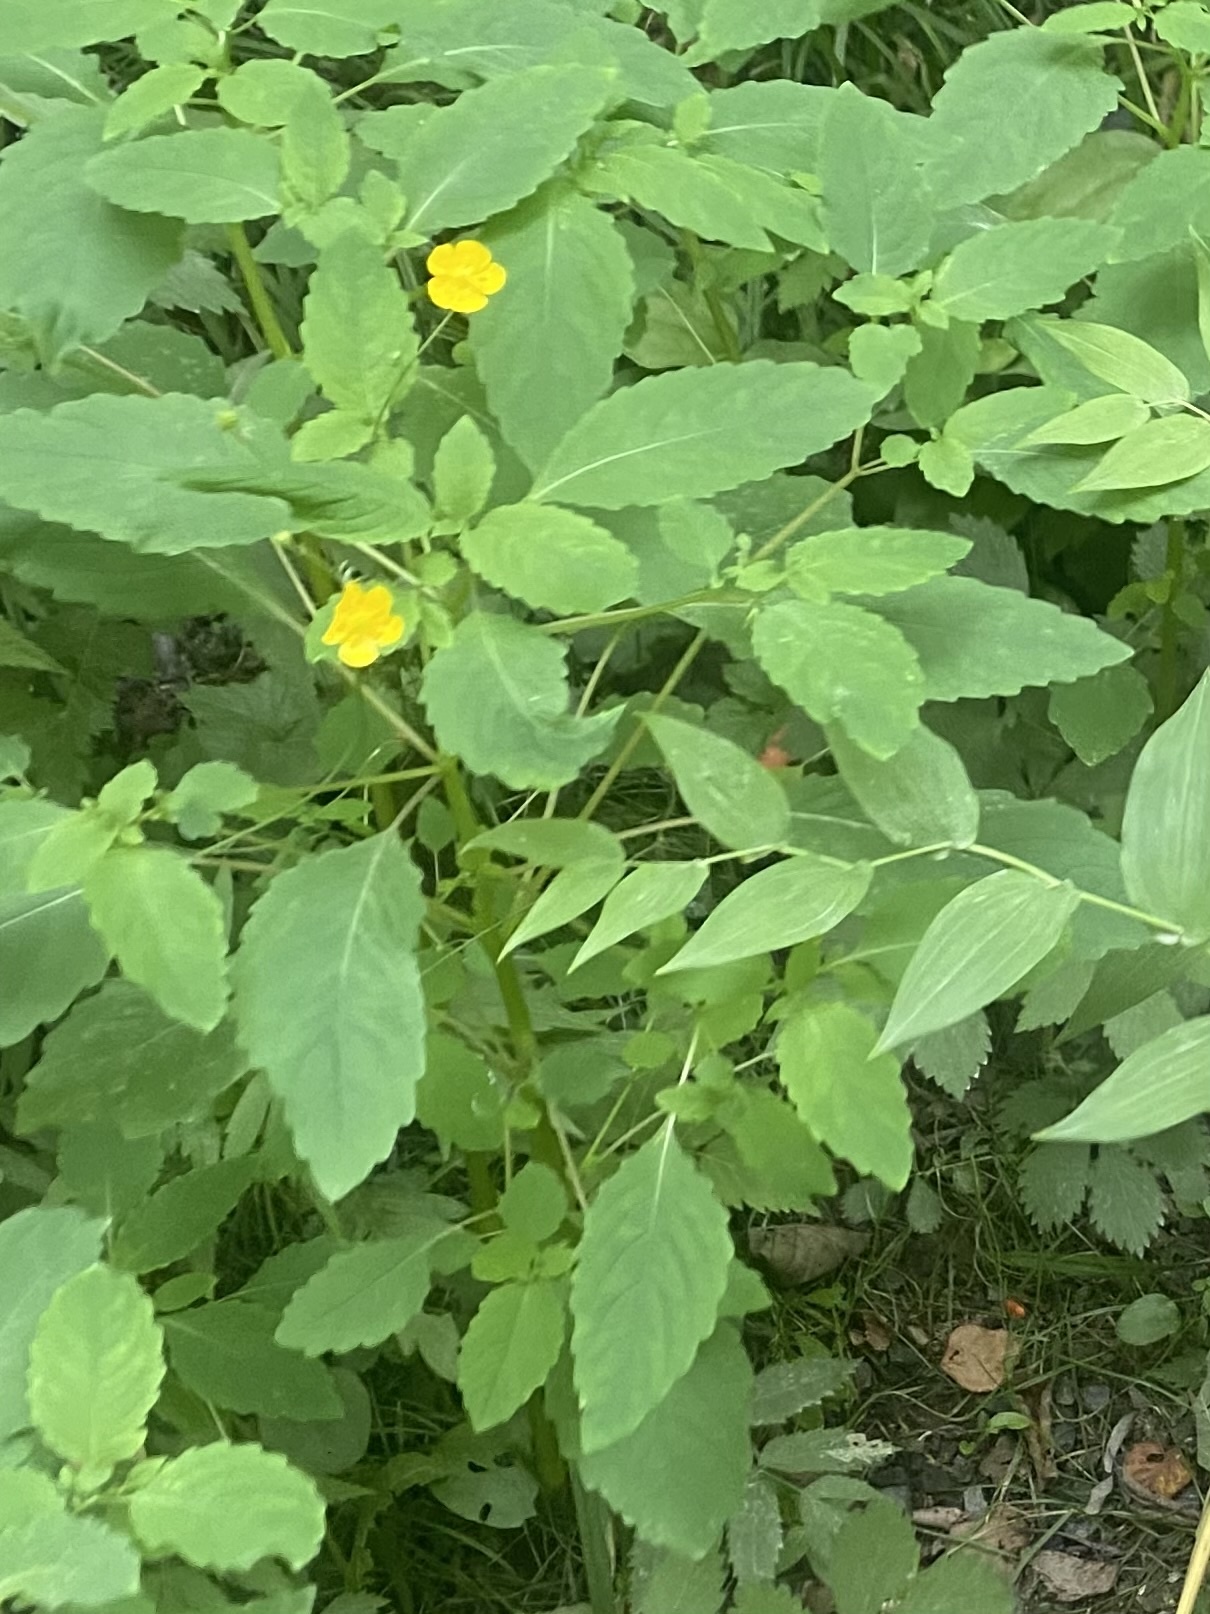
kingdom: Plantae
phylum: Tracheophyta
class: Magnoliopsida
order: Ericales
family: Balsaminaceae
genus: Impatiens
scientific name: Impatiens noli-tangere
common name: Touch-me-not balsam
